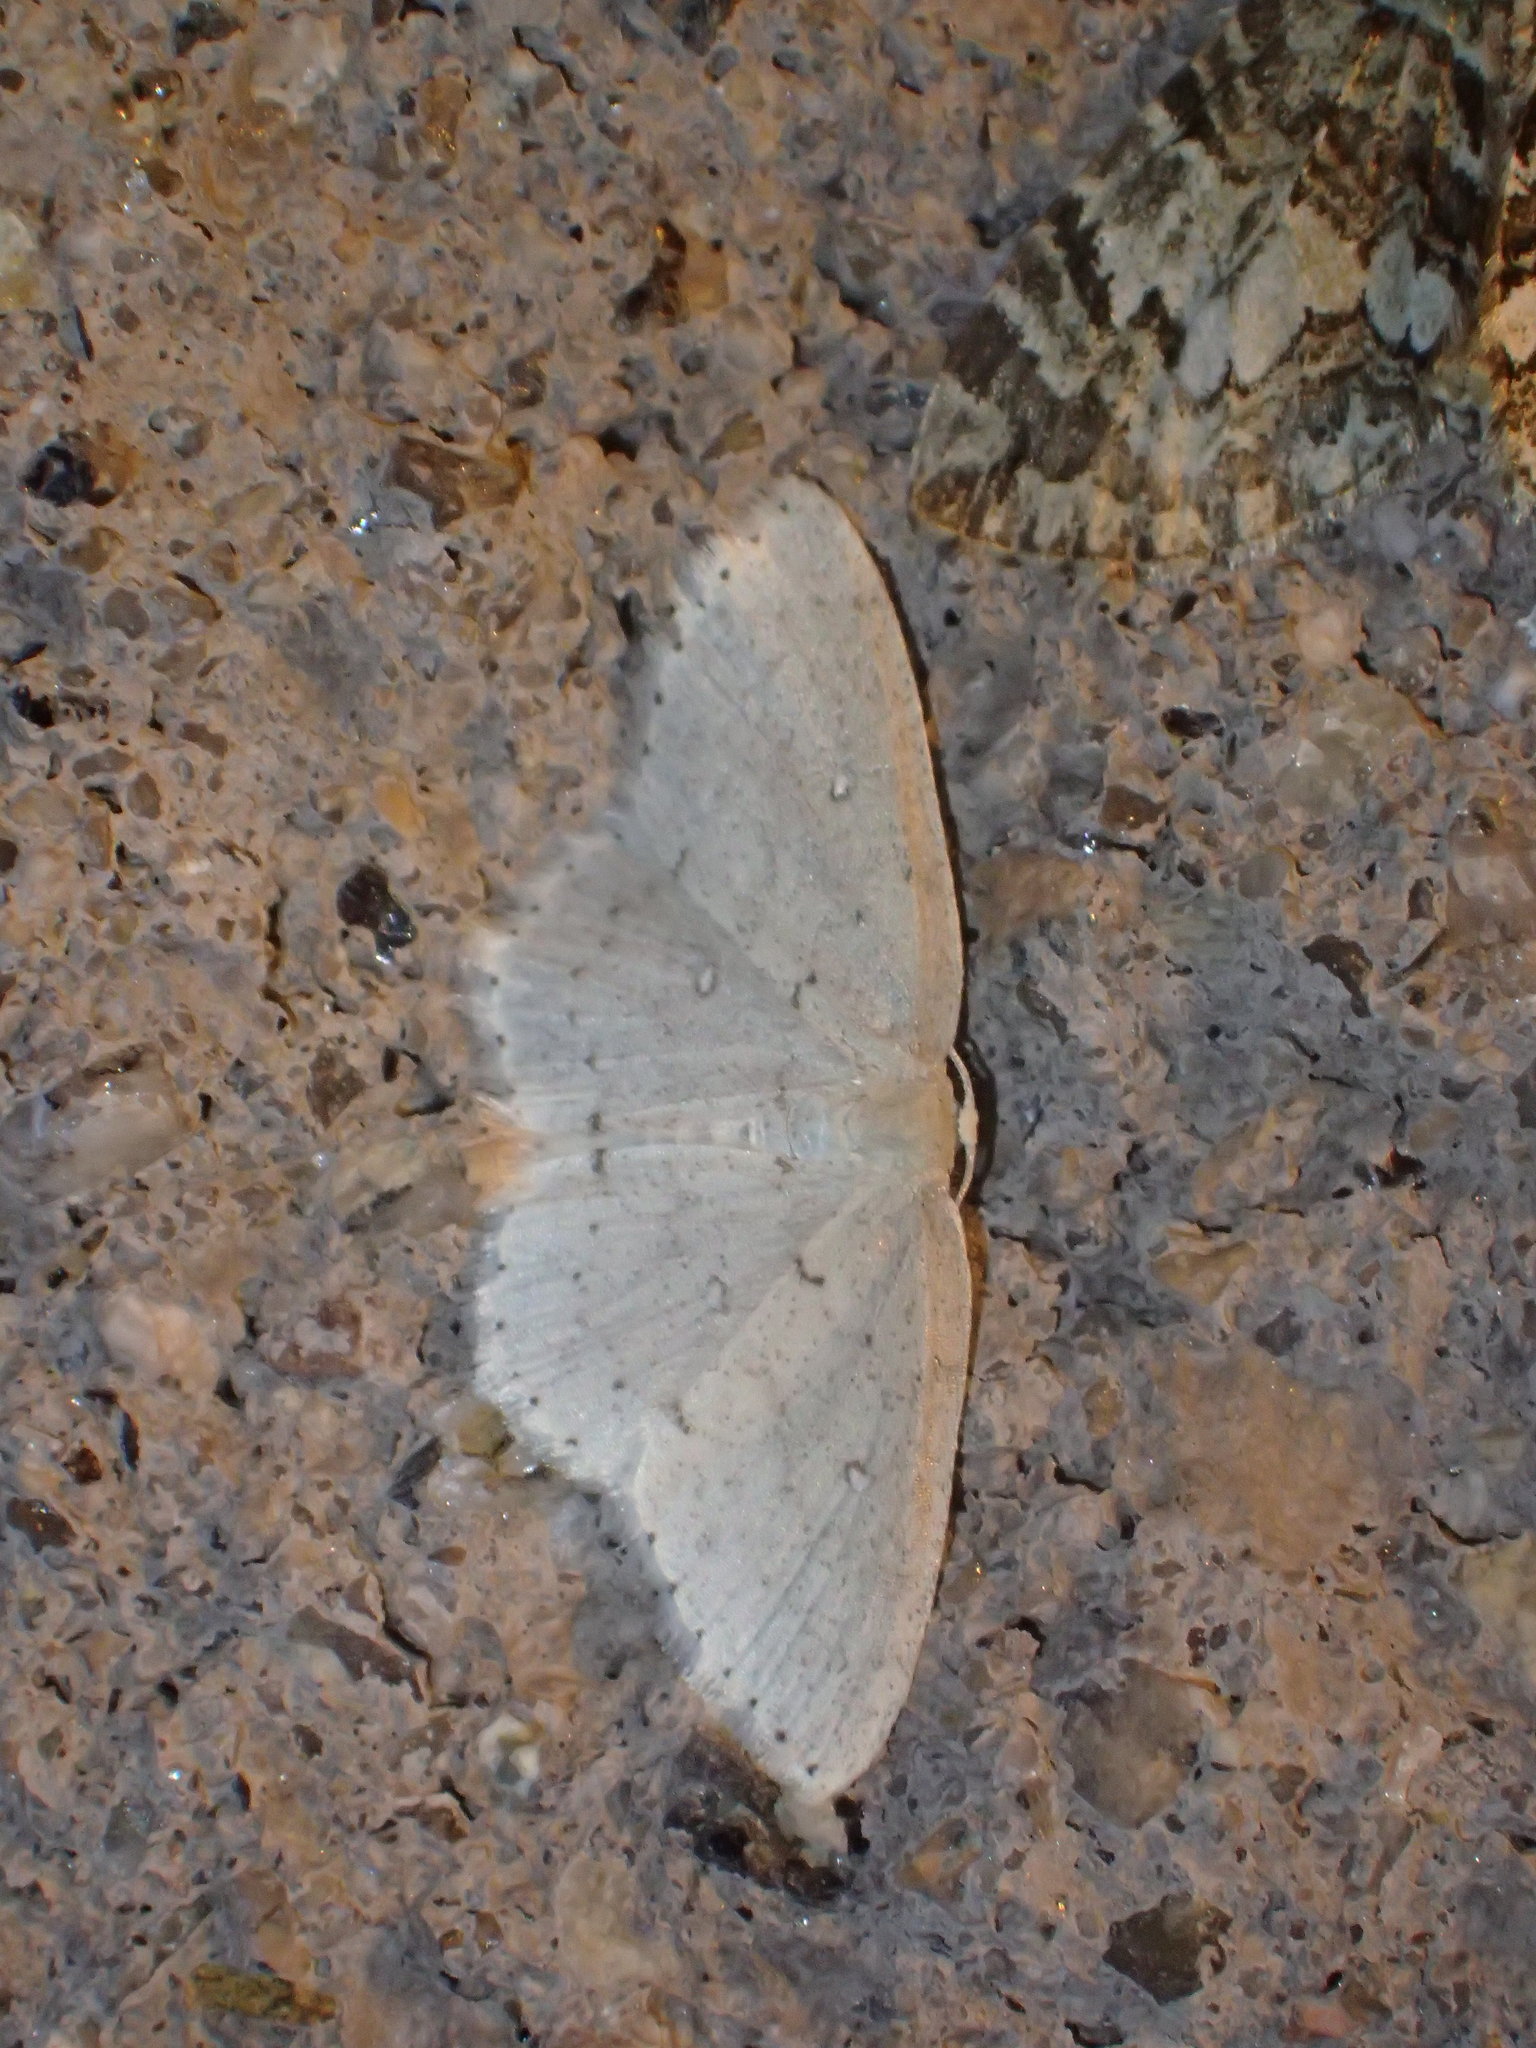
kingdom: Animalia
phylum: Arthropoda
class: Insecta
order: Lepidoptera
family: Geometridae
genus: Cyclophora
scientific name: Cyclophora pendulinaria
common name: Sweet fern geometer
